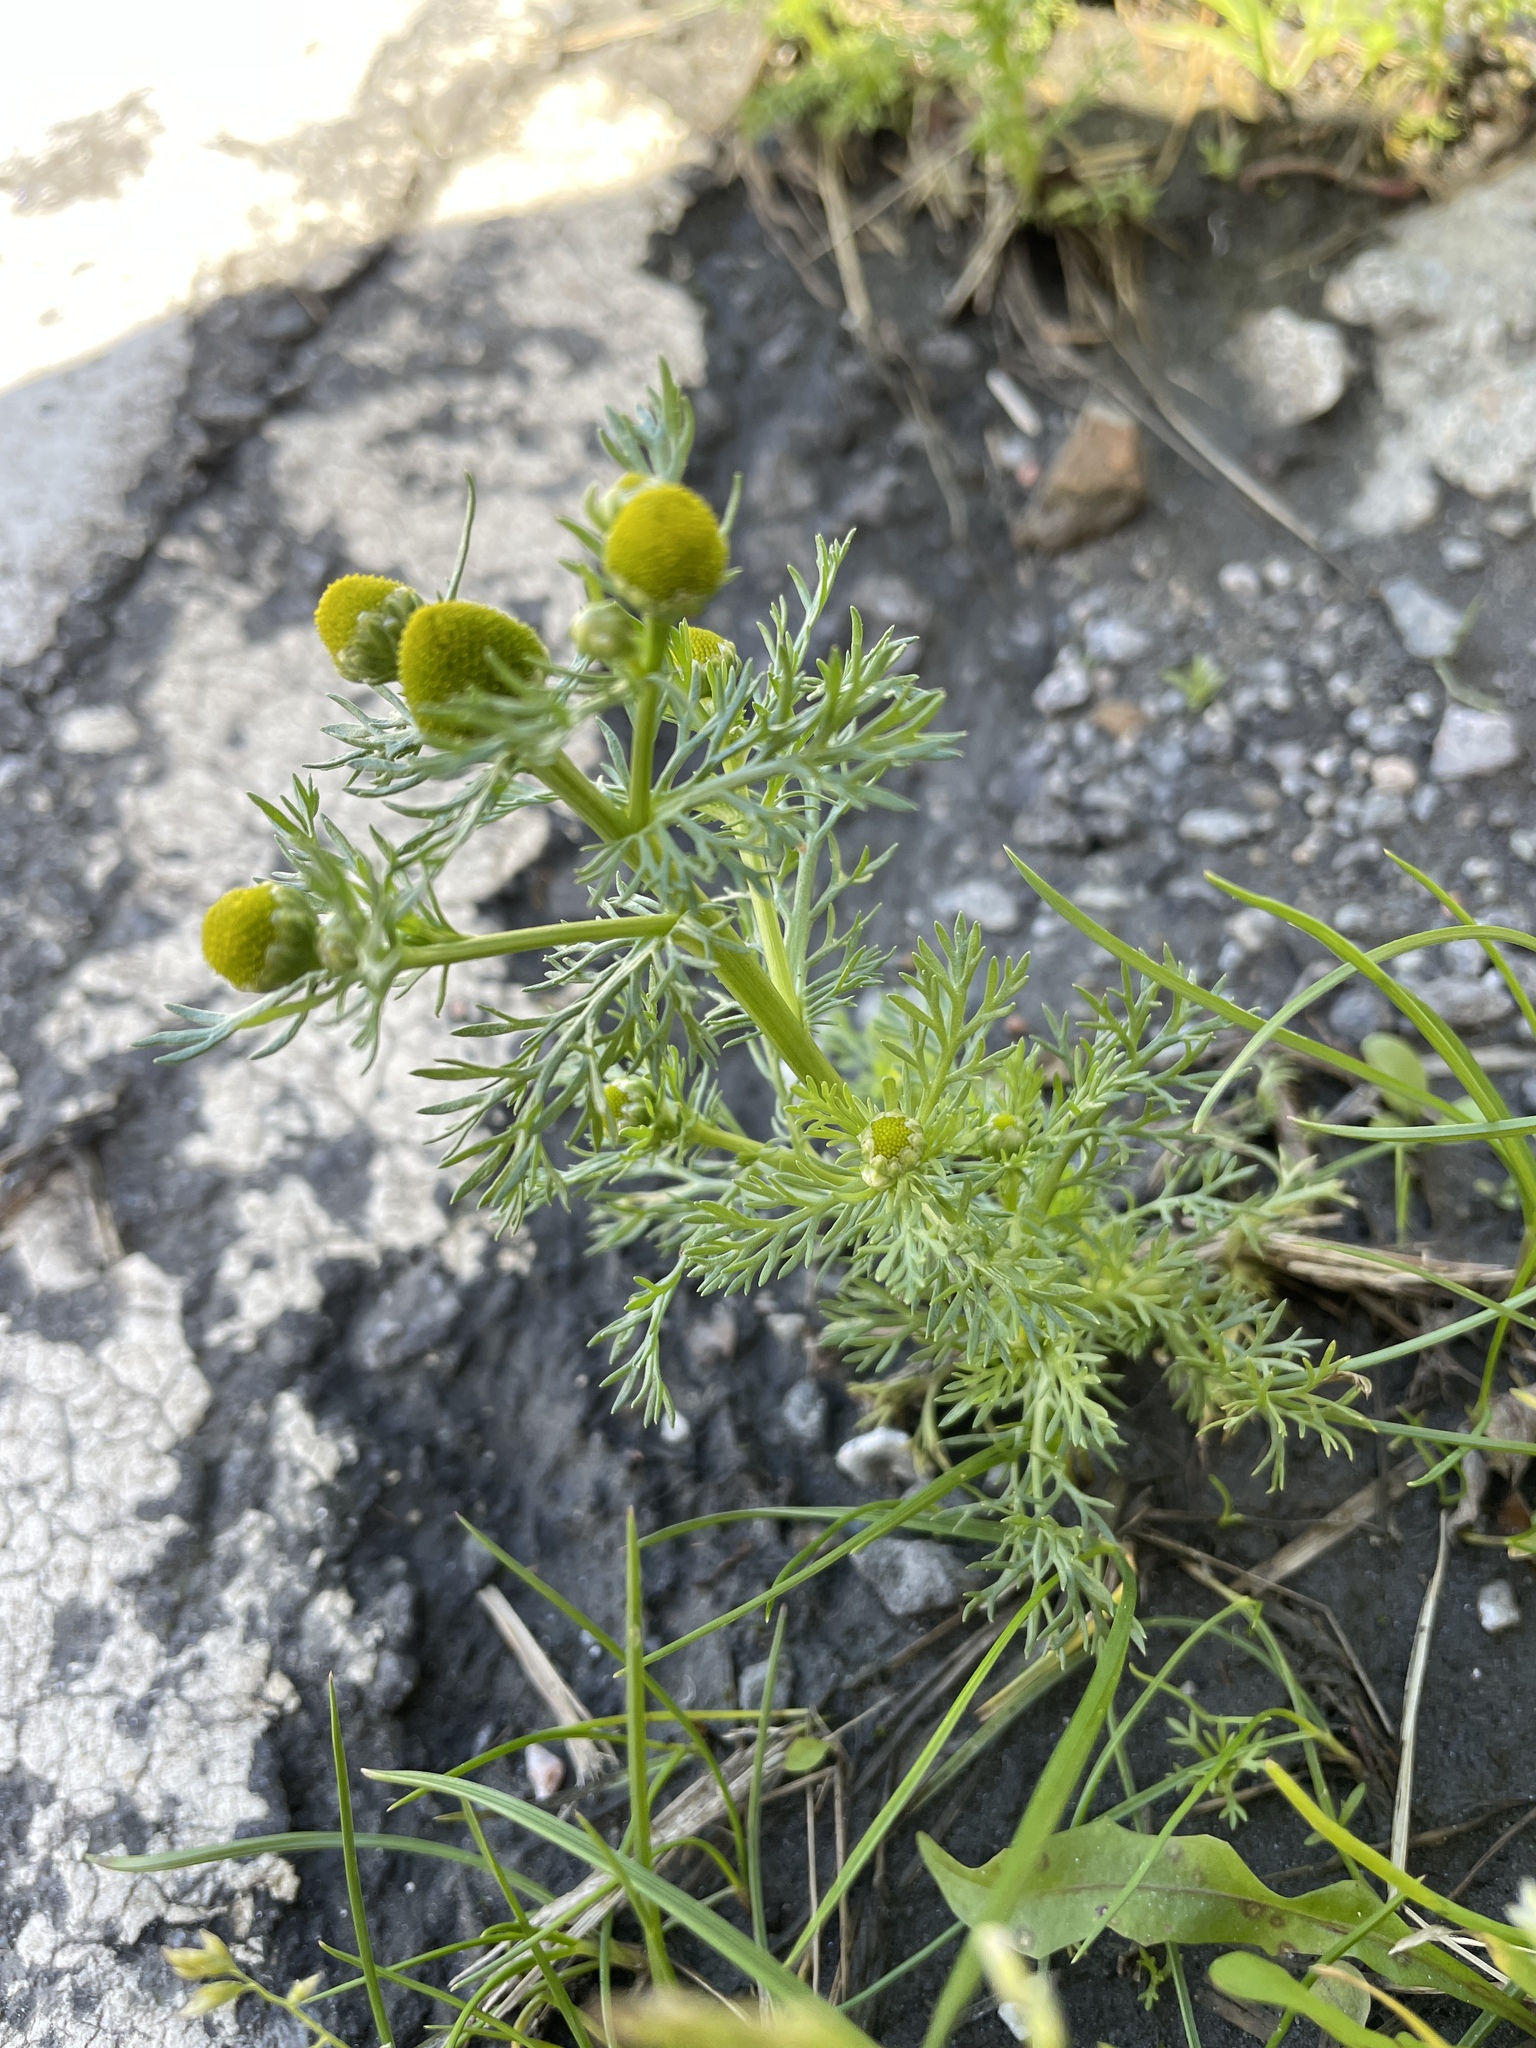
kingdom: Plantae
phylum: Tracheophyta
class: Magnoliopsida
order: Asterales
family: Asteraceae
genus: Matricaria
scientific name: Matricaria discoidea
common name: Disc mayweed
